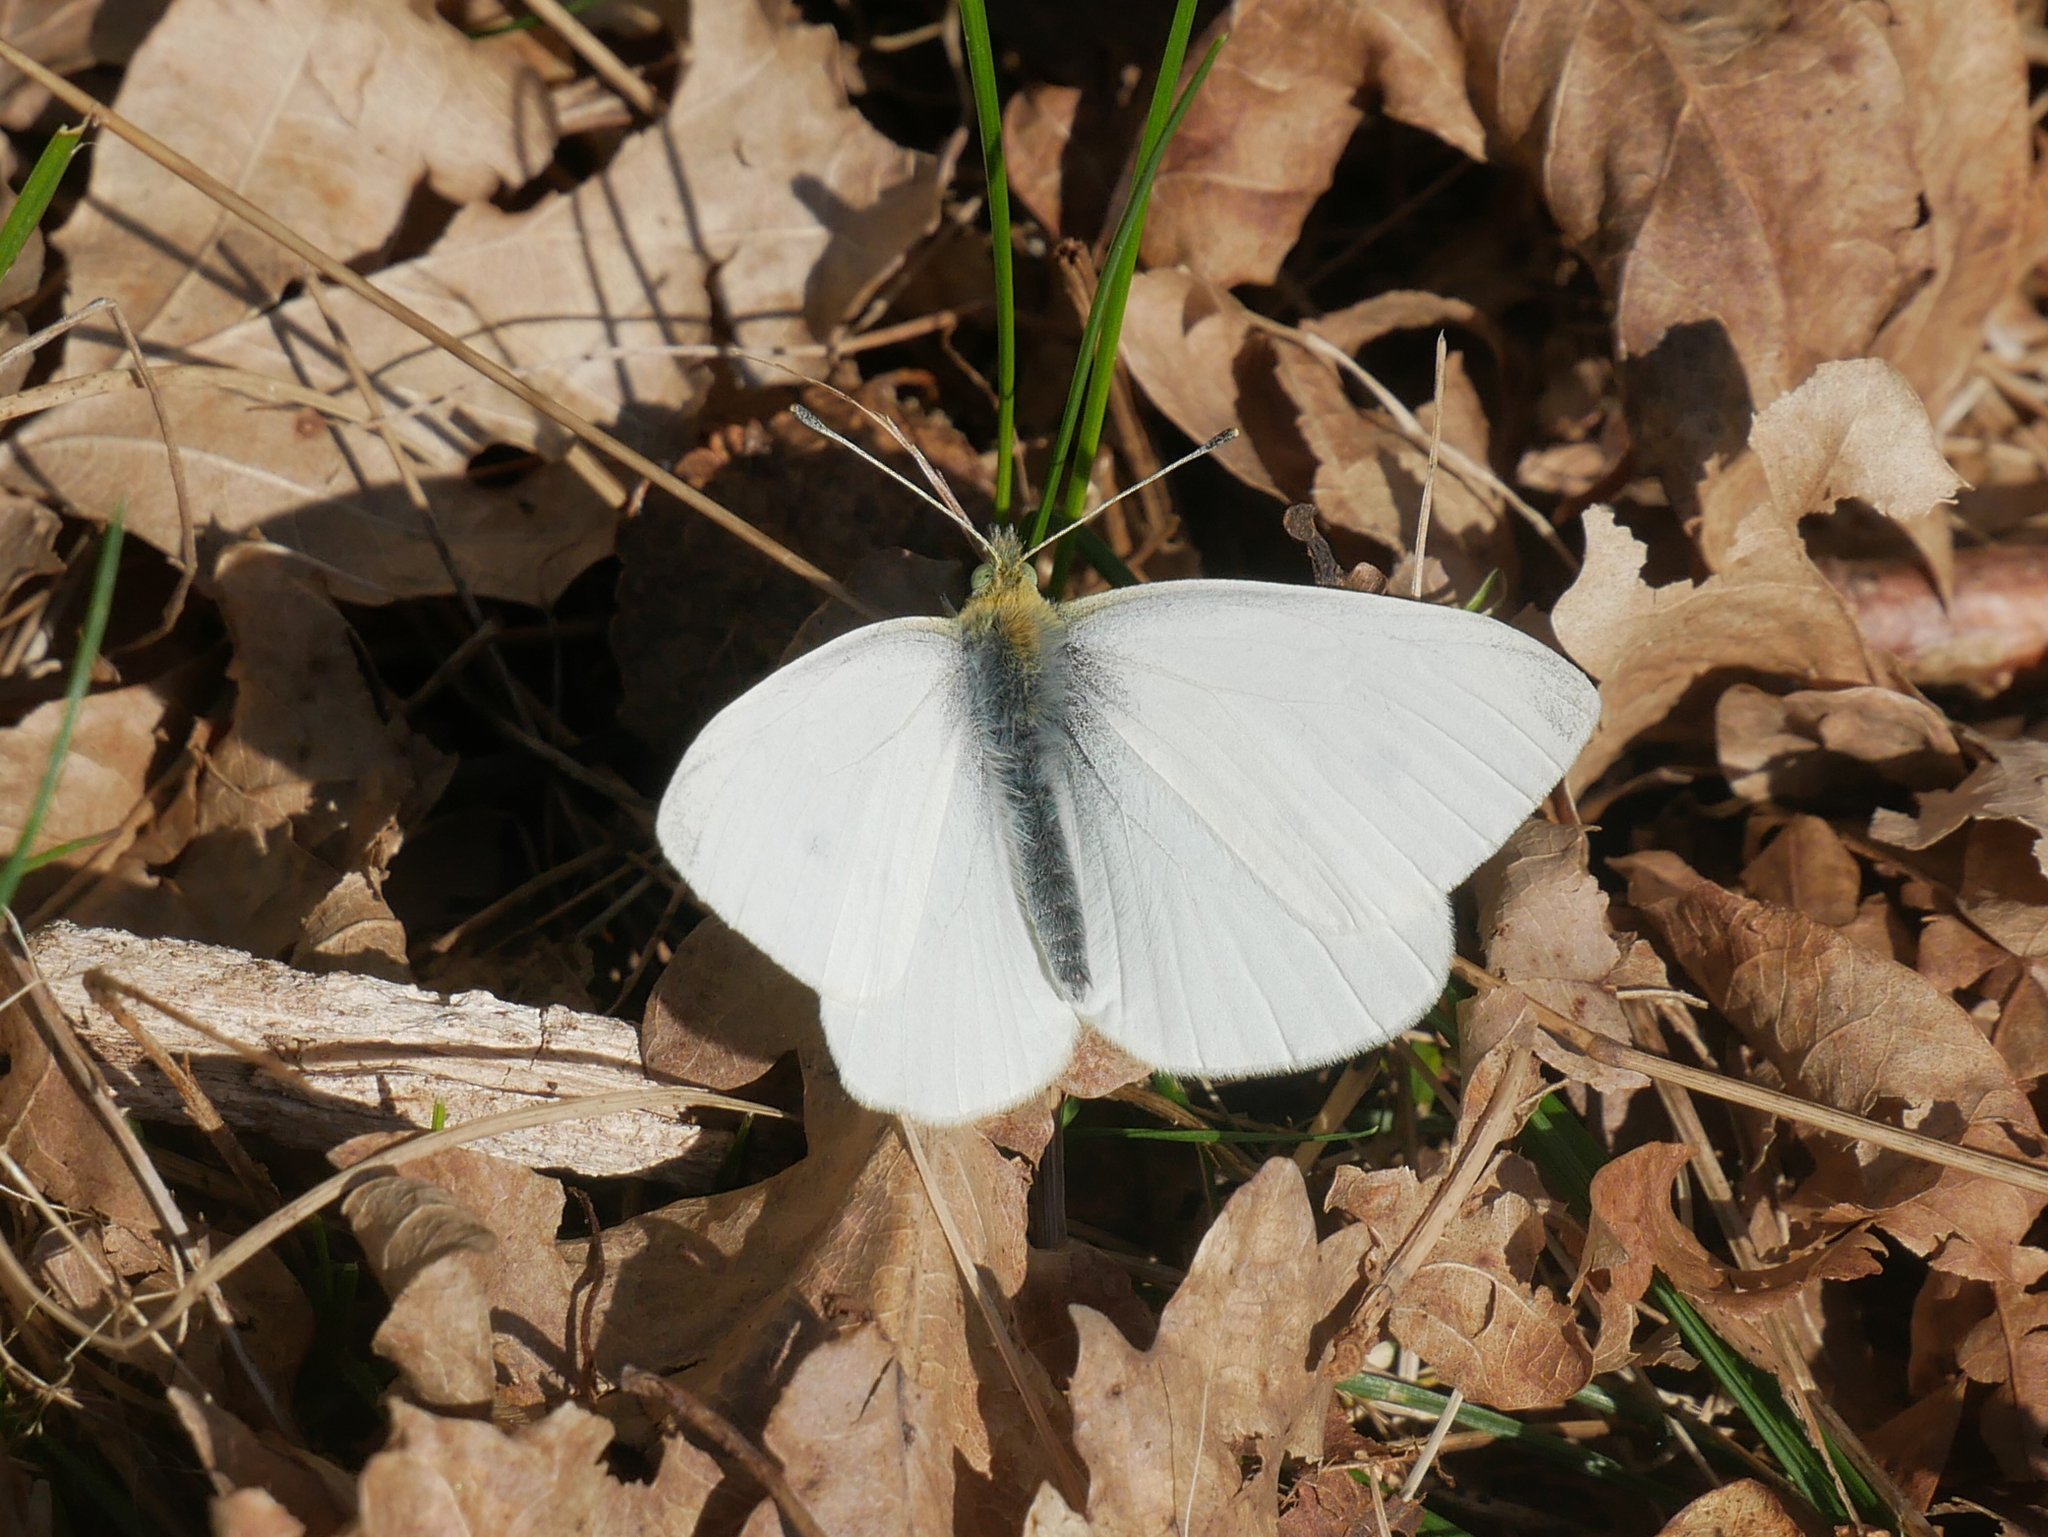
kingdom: Animalia
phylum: Arthropoda
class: Insecta
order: Lepidoptera
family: Pieridae
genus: Pieris
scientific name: Pieris rapae
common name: Small white
